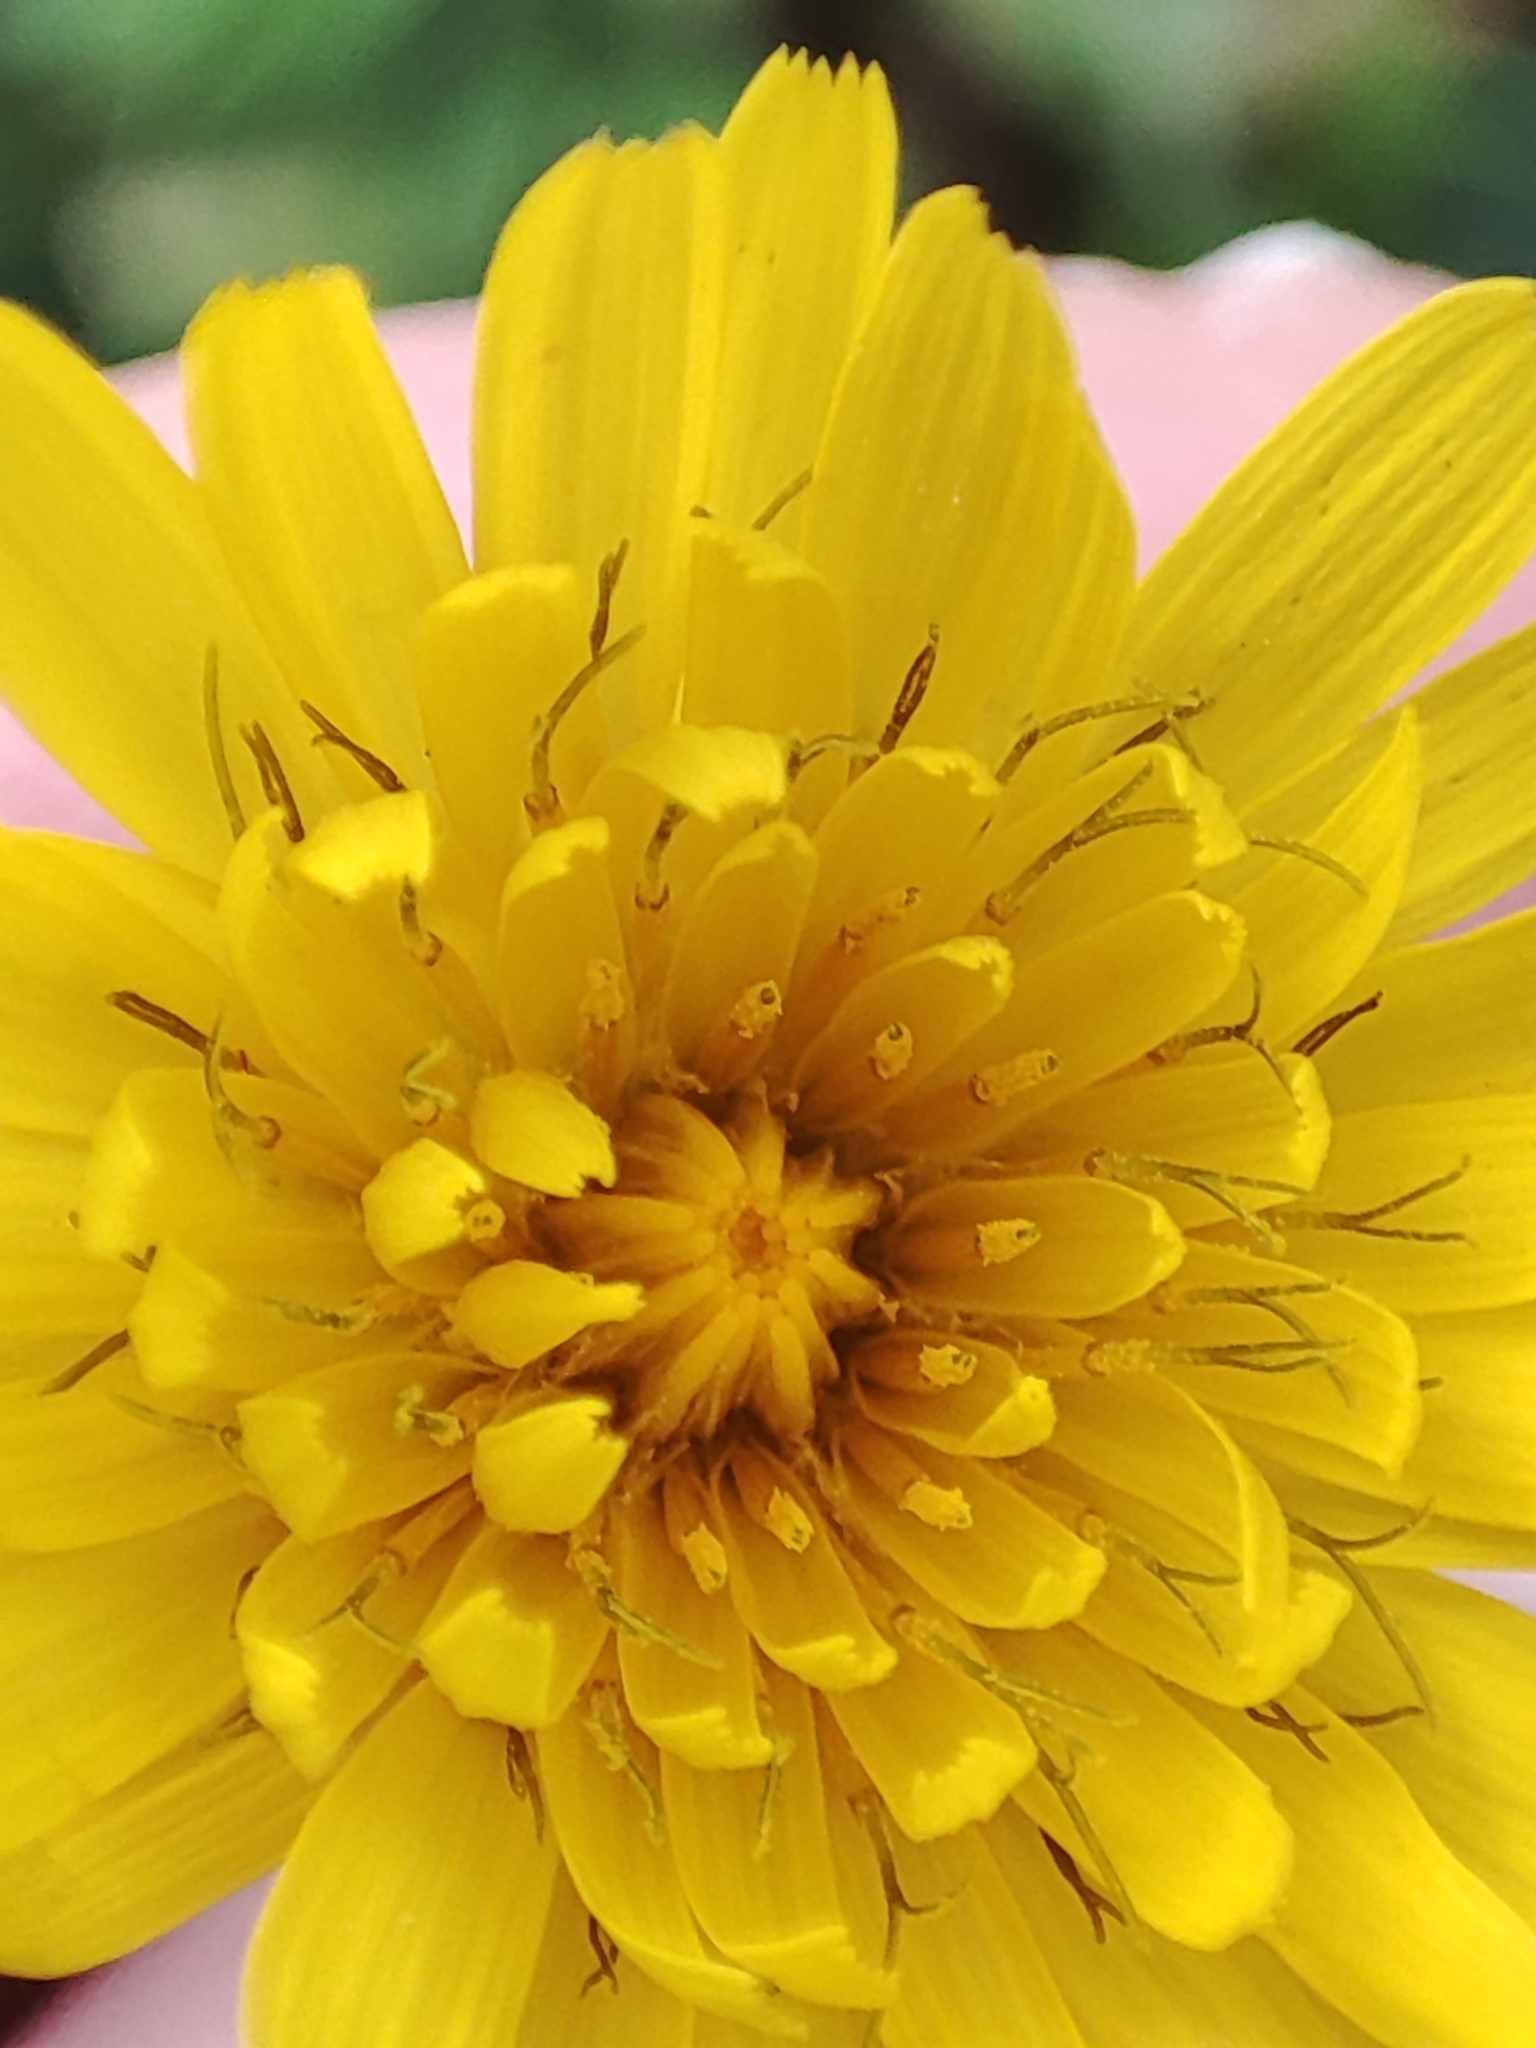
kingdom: Plantae
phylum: Tracheophyta
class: Magnoliopsida
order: Asterales
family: Asteraceae
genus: Reichardia
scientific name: Reichardia picroides
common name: Common brighteyes
